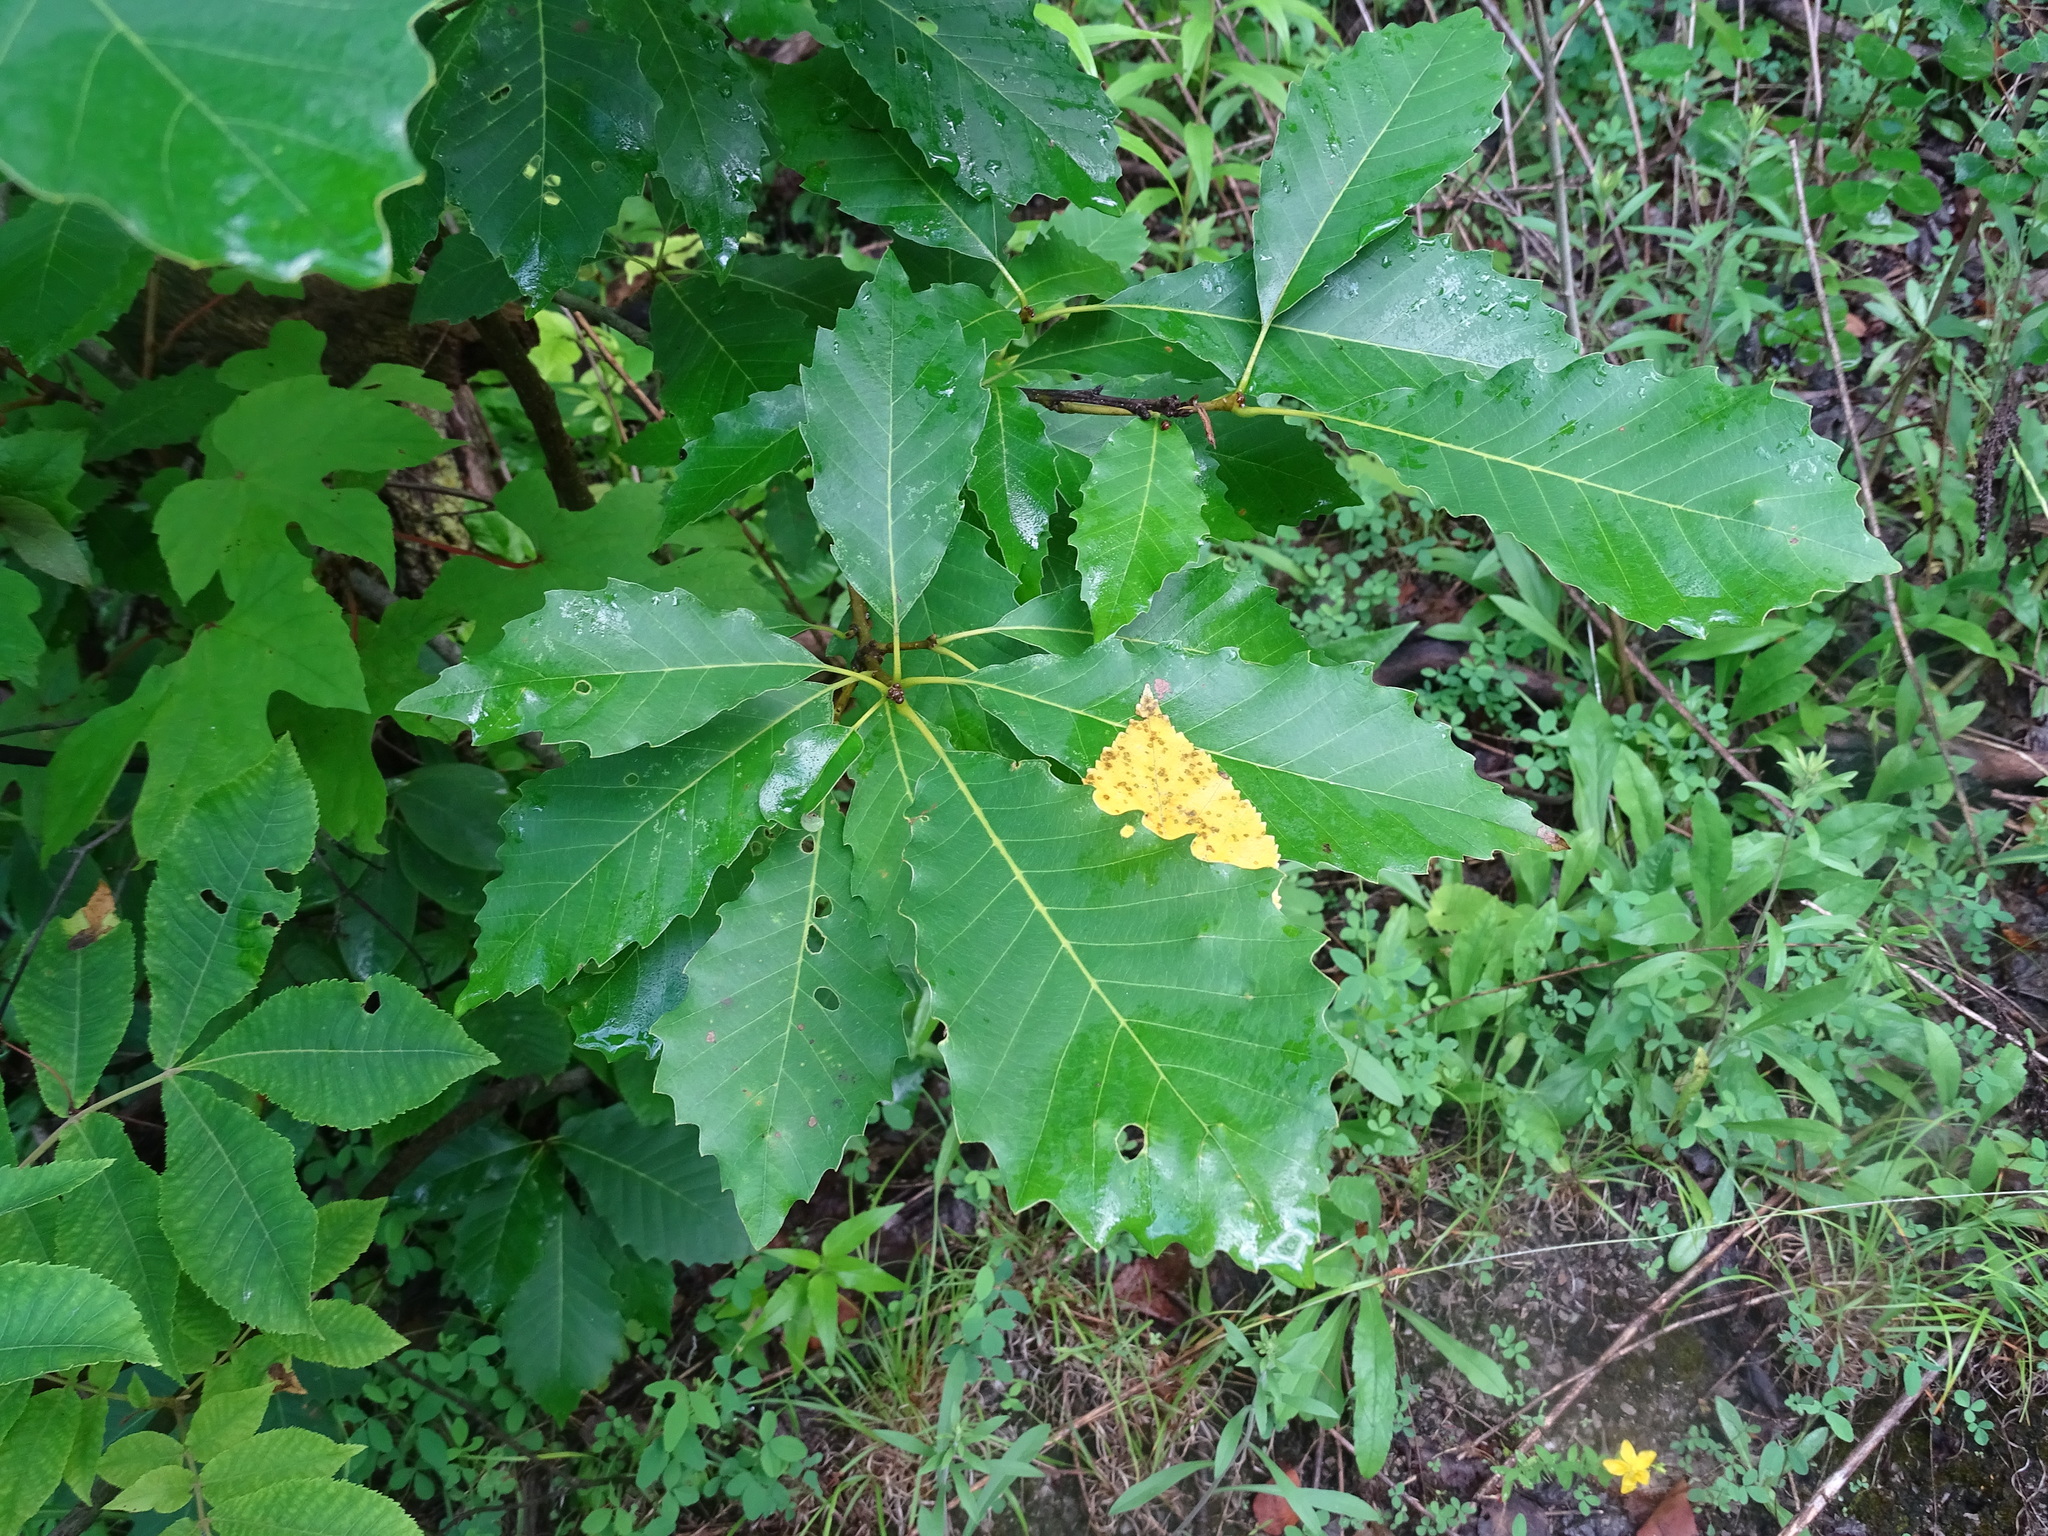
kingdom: Plantae
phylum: Tracheophyta
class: Magnoliopsida
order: Fagales
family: Fagaceae
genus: Quercus
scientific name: Quercus muehlenbergii
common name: Chinkapin oak
